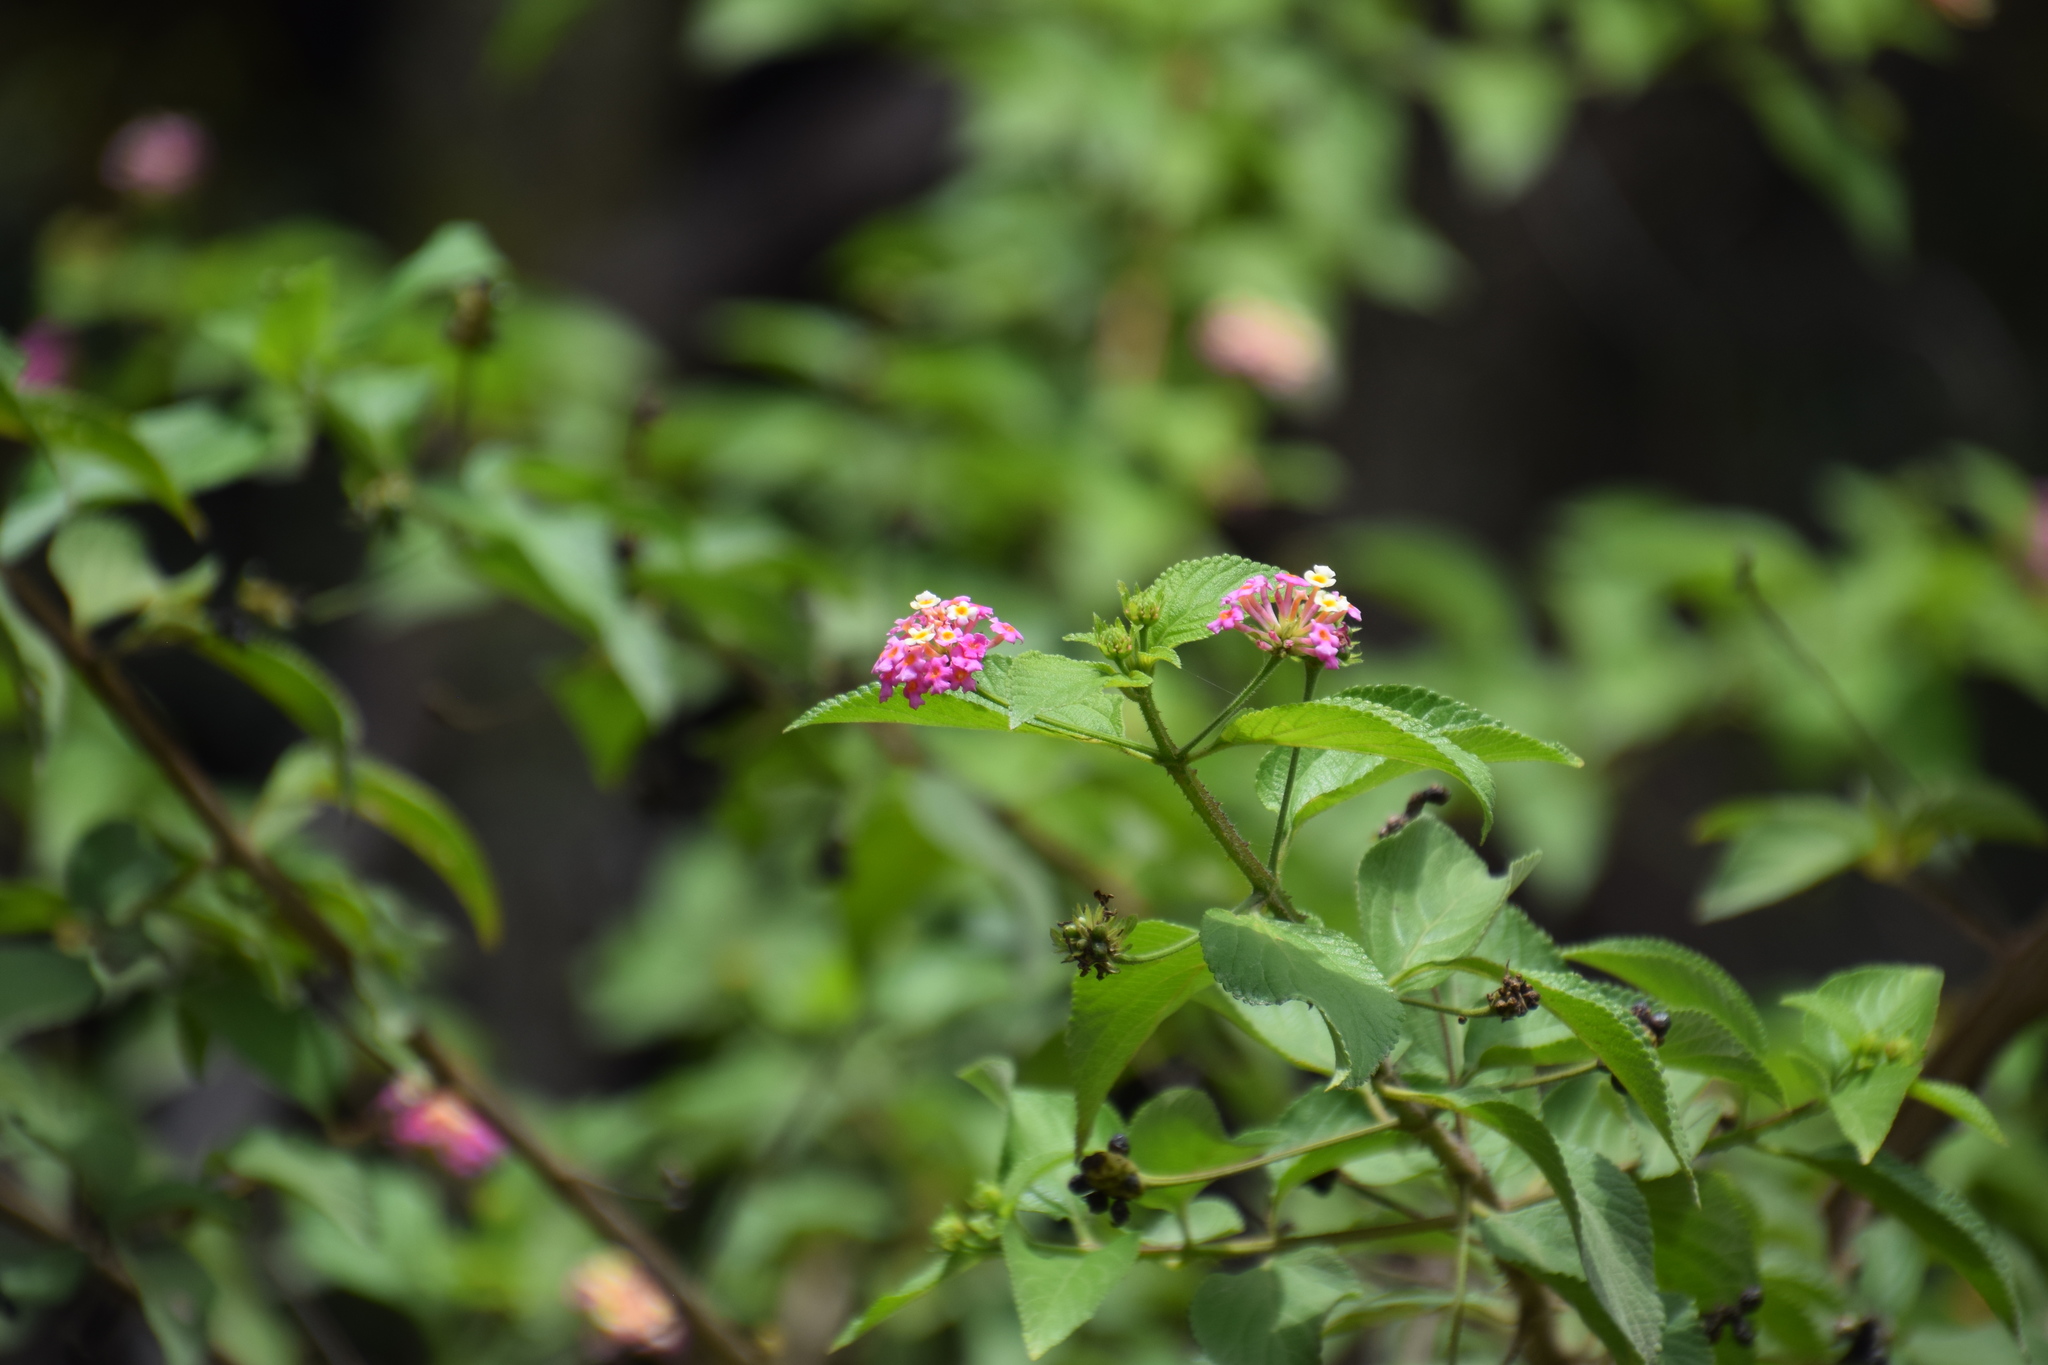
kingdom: Plantae
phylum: Tracheophyta
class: Magnoliopsida
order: Lamiales
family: Verbenaceae
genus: Lantana
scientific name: Lantana camara
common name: Lantana
